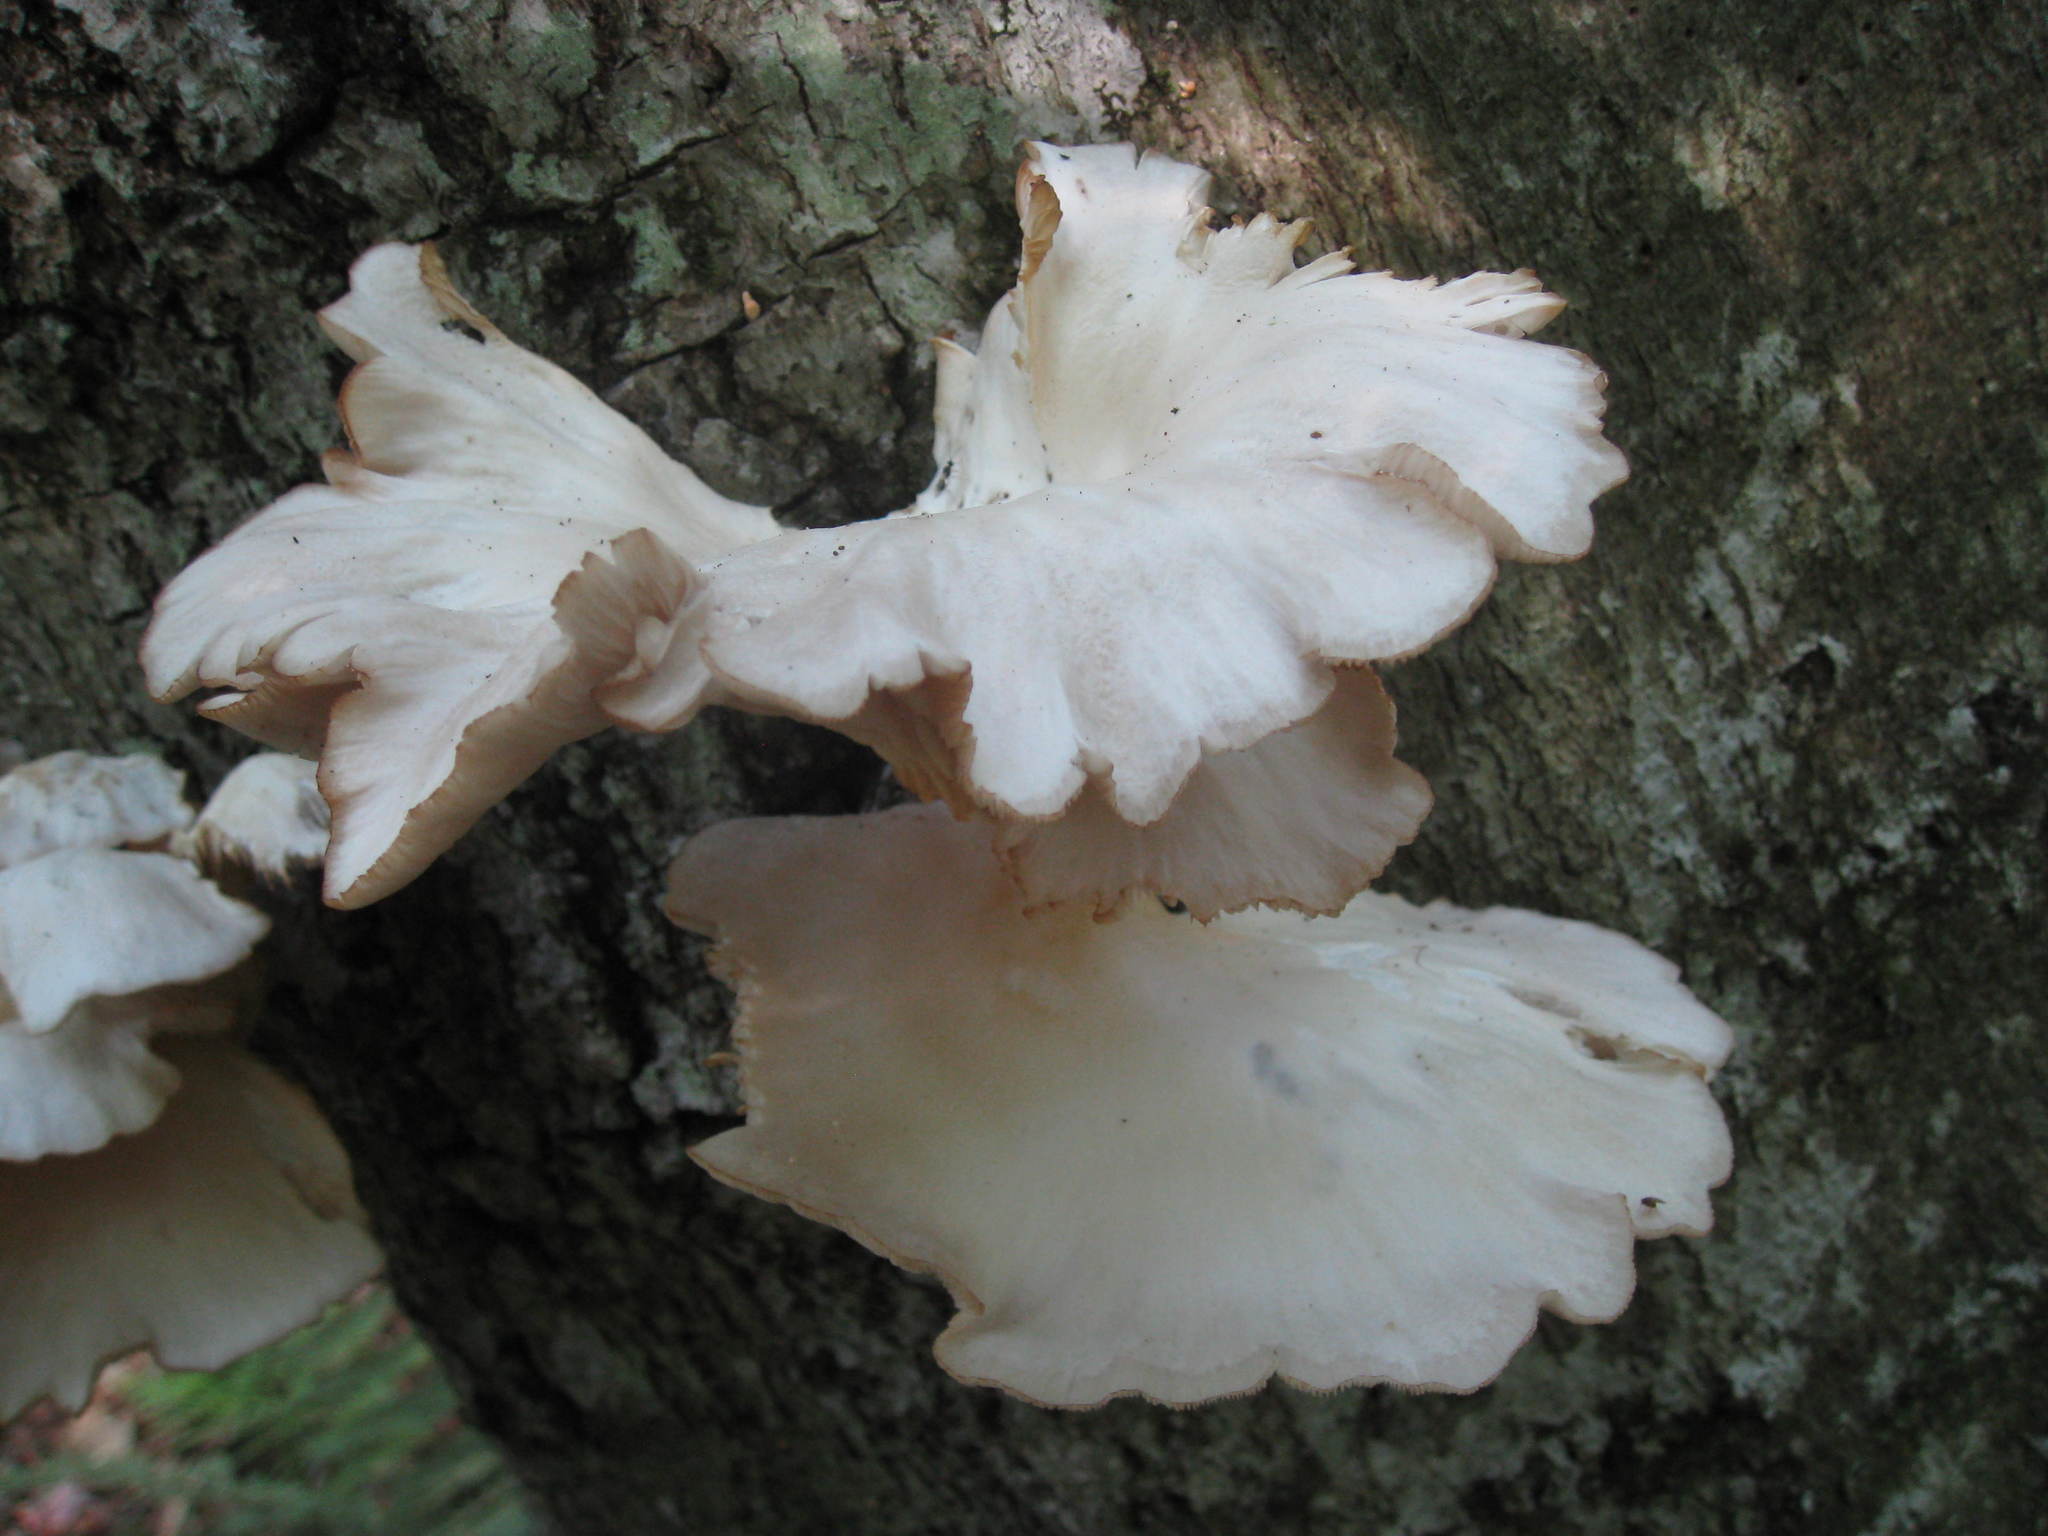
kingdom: Fungi
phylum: Basidiomycota
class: Agaricomycetes
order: Agaricales
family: Pleurotaceae
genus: Pleurotus
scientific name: Pleurotus pulmonarius
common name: Pale oyster
